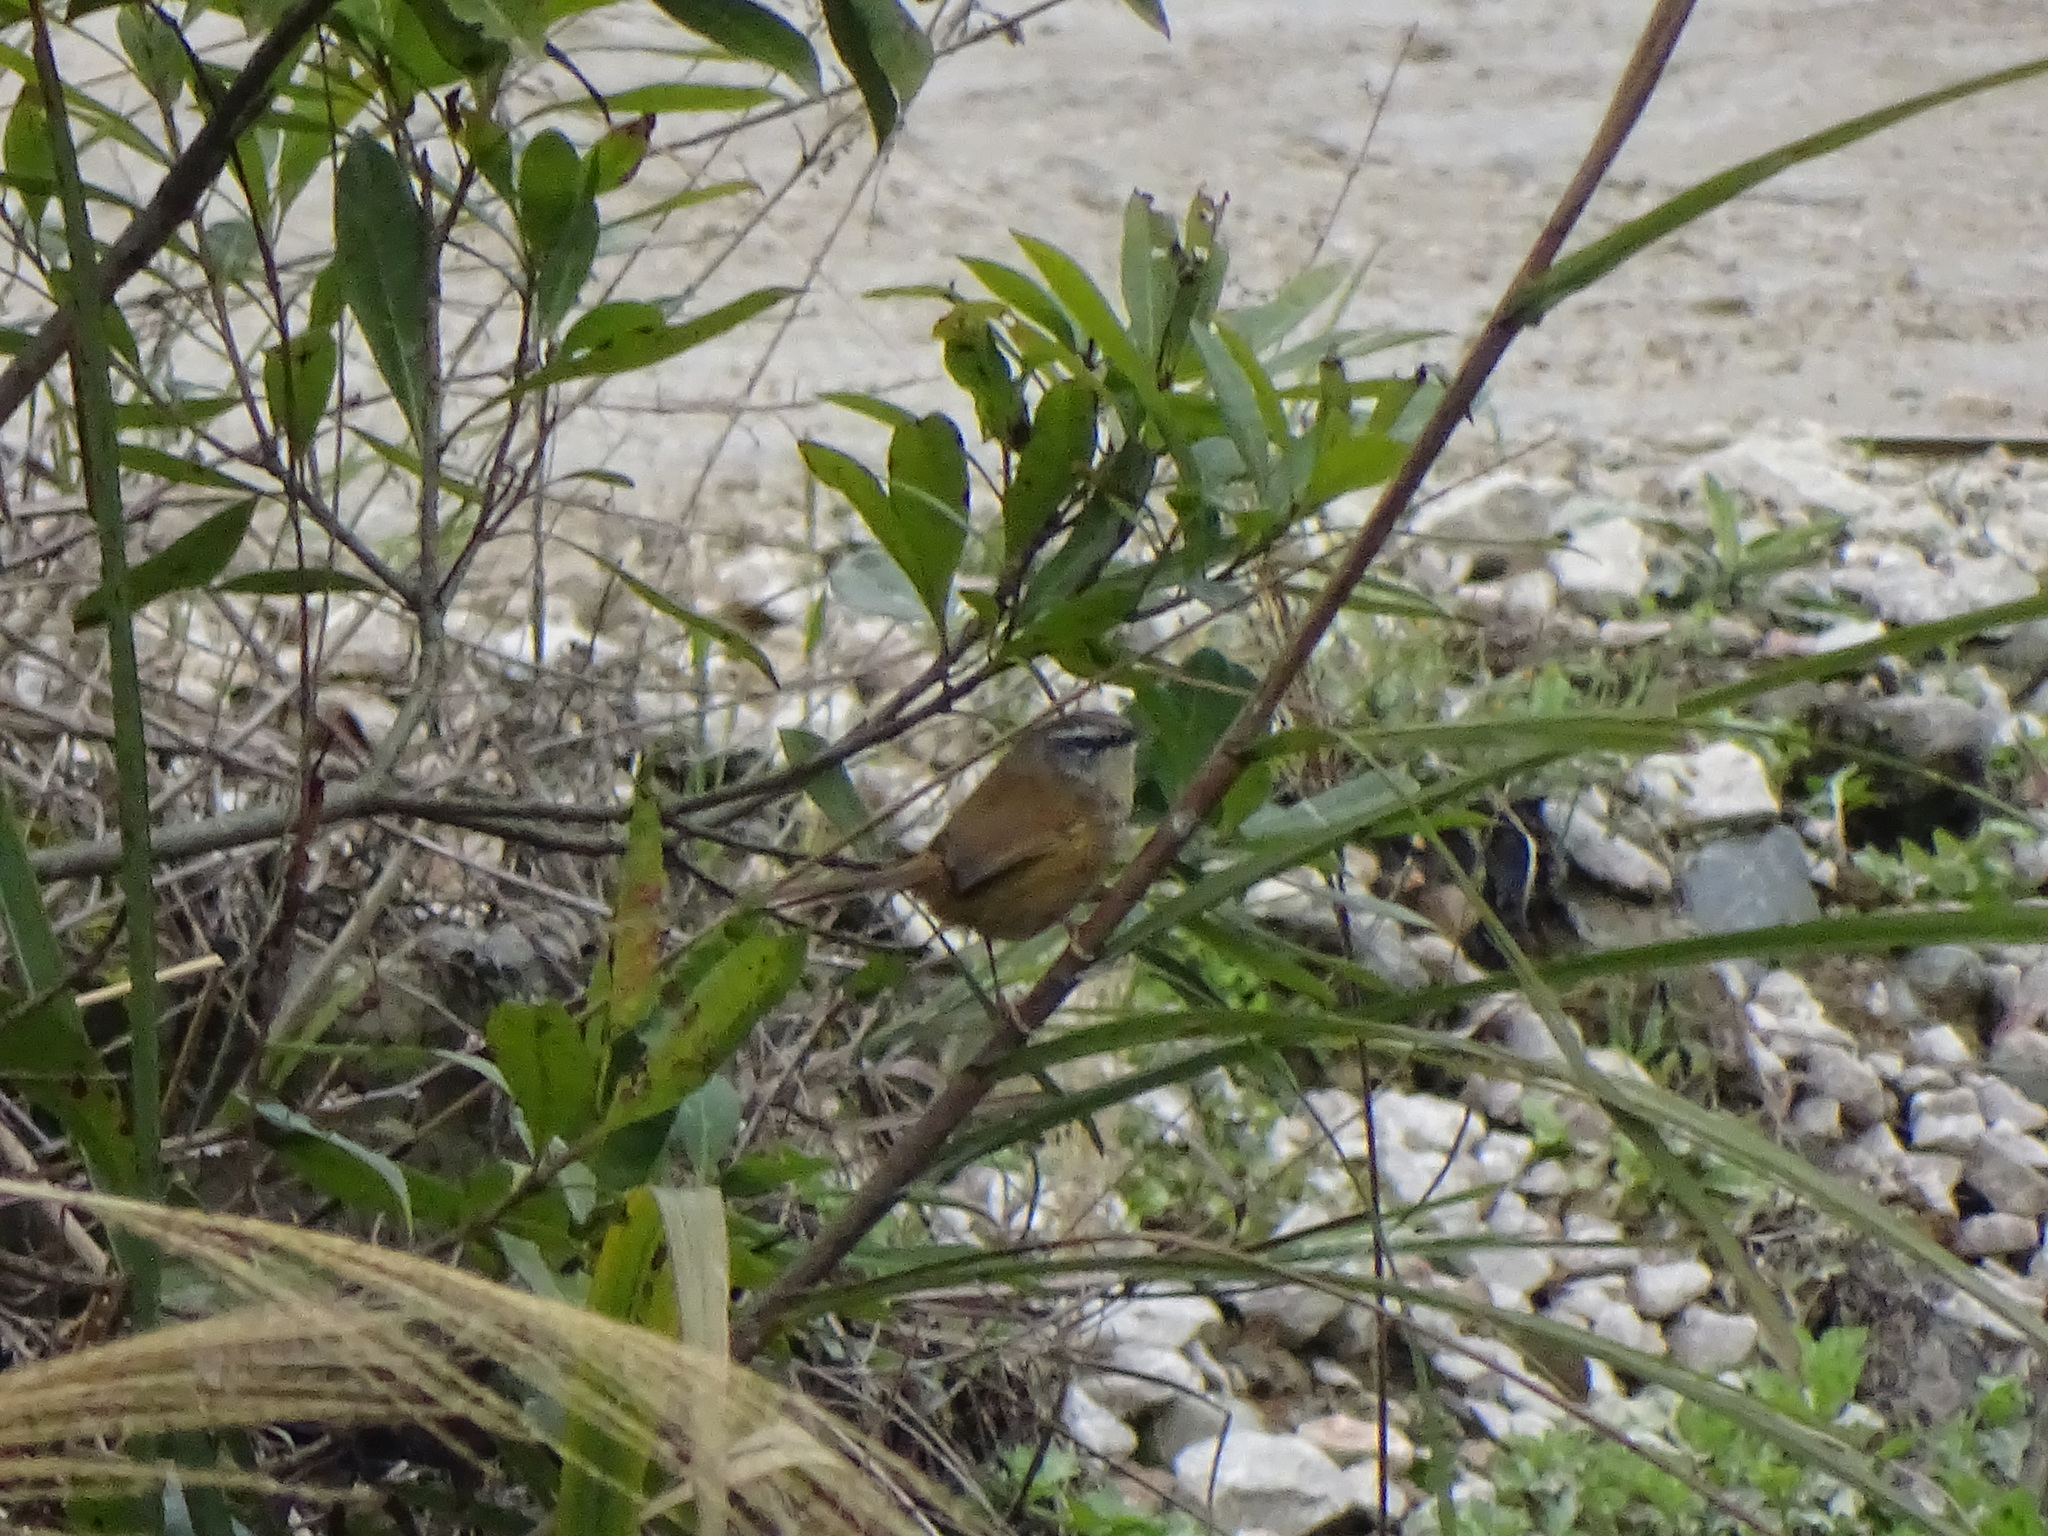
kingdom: Animalia
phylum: Chordata
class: Aves
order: Passeriformes
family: Cisticolidae
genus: Prinia
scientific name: Prinia superciliaris
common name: Hill prinia
